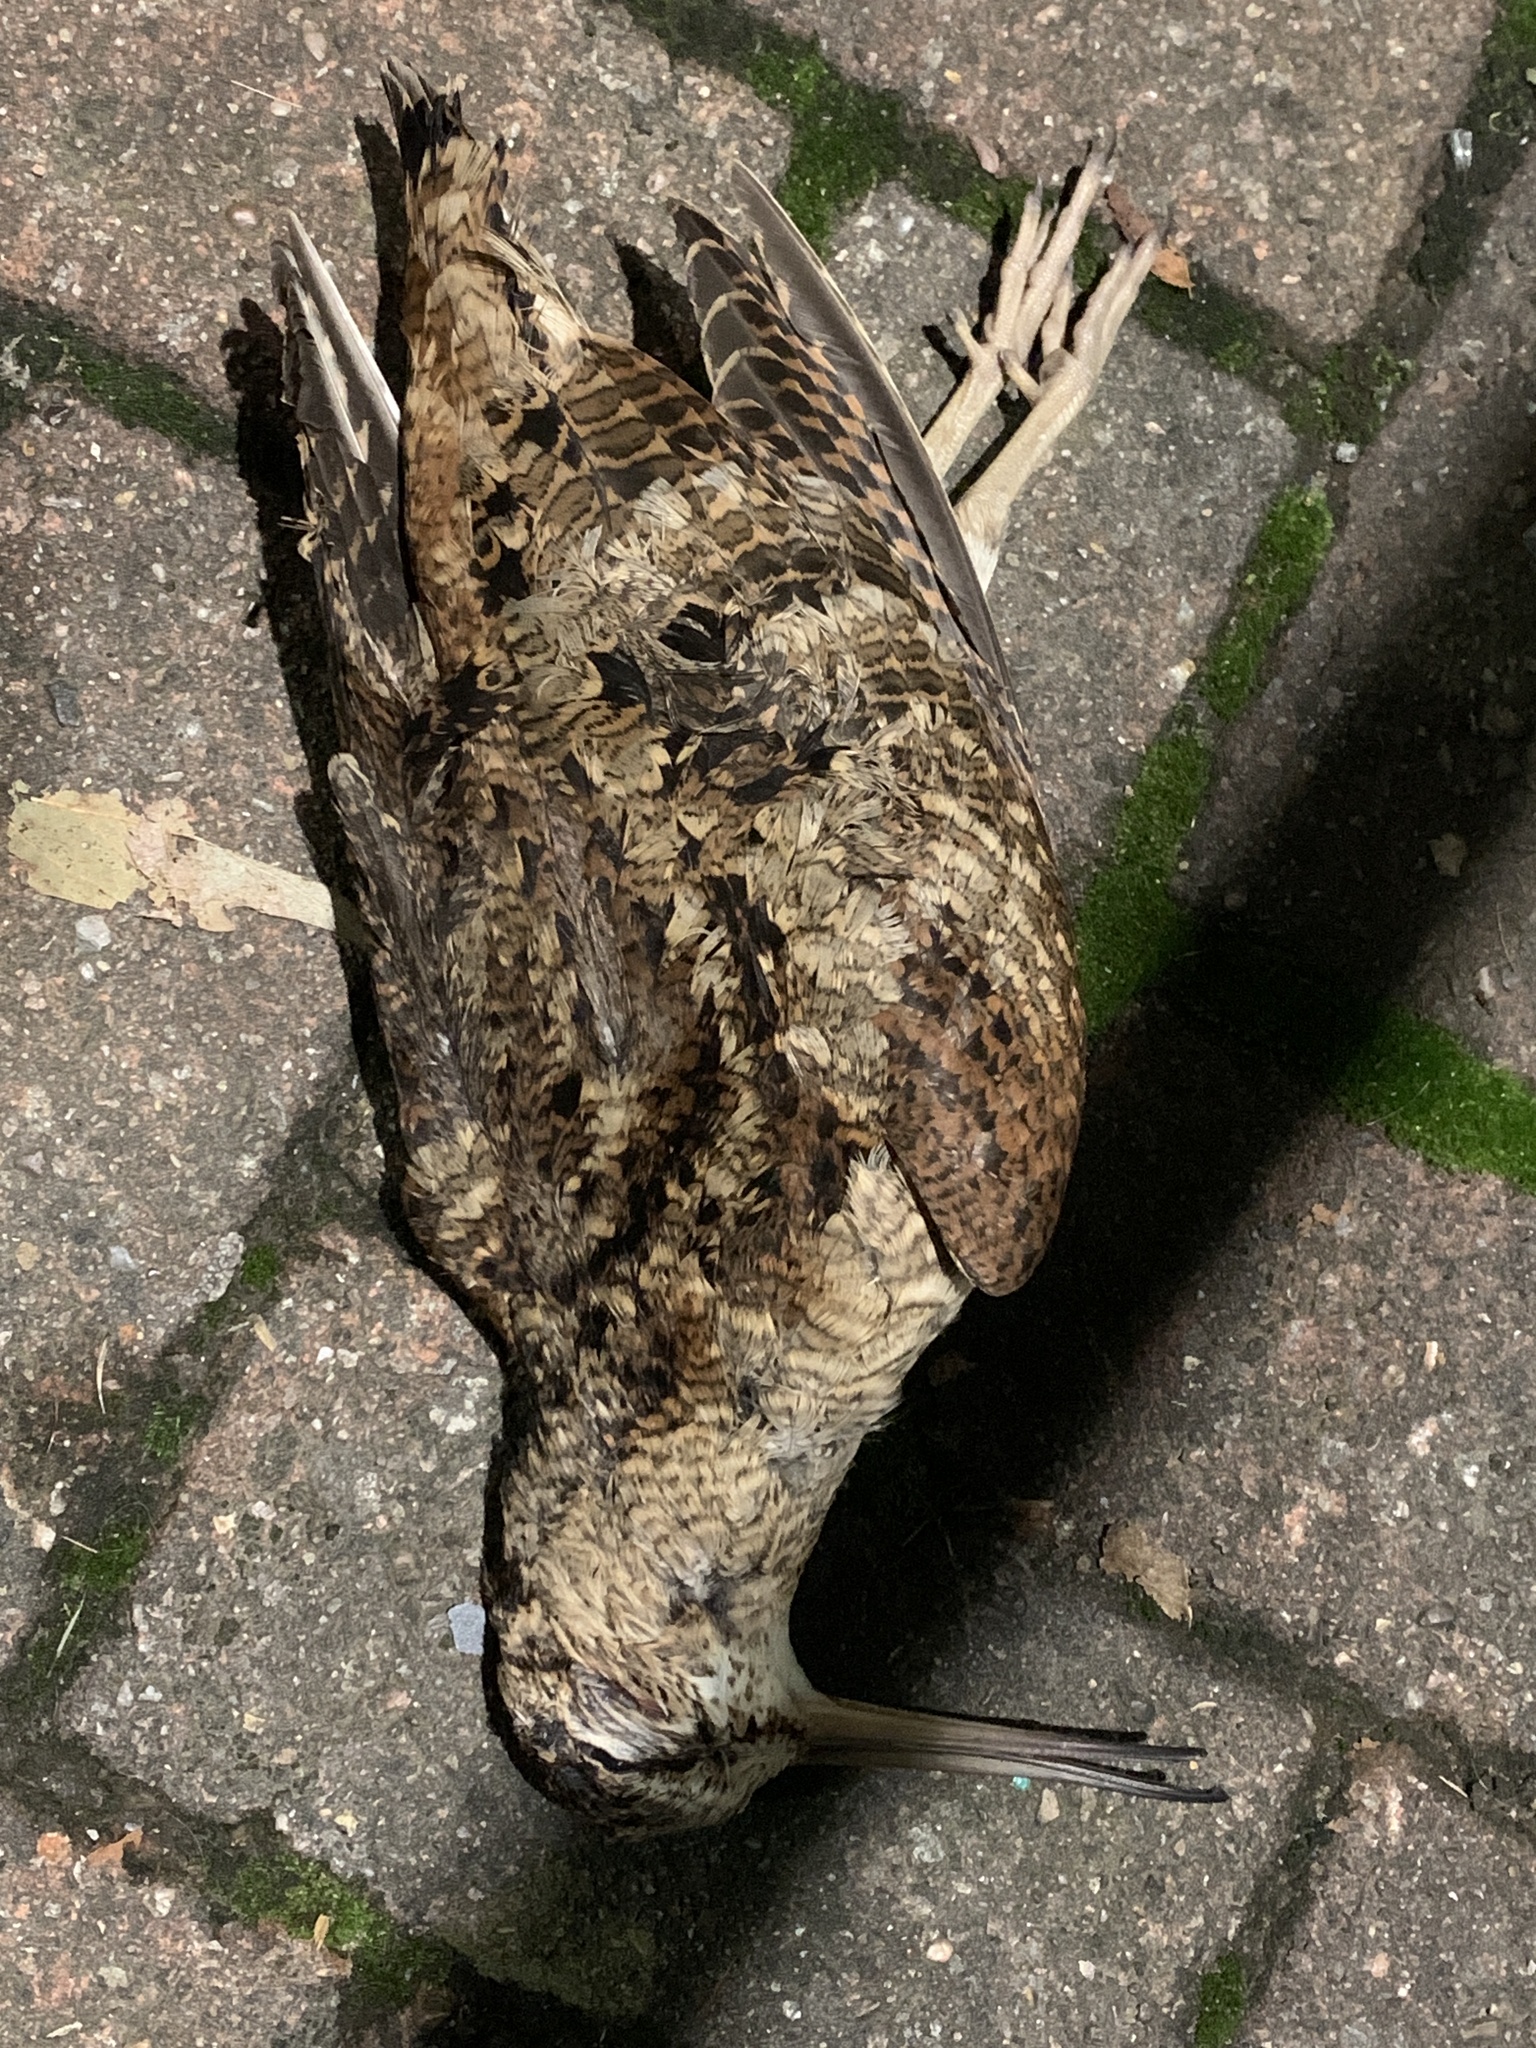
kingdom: Animalia
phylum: Chordata
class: Aves
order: Charadriiformes
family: Scolopacidae
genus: Scolopax
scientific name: Scolopax rusticola
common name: Eurasian woodcock
